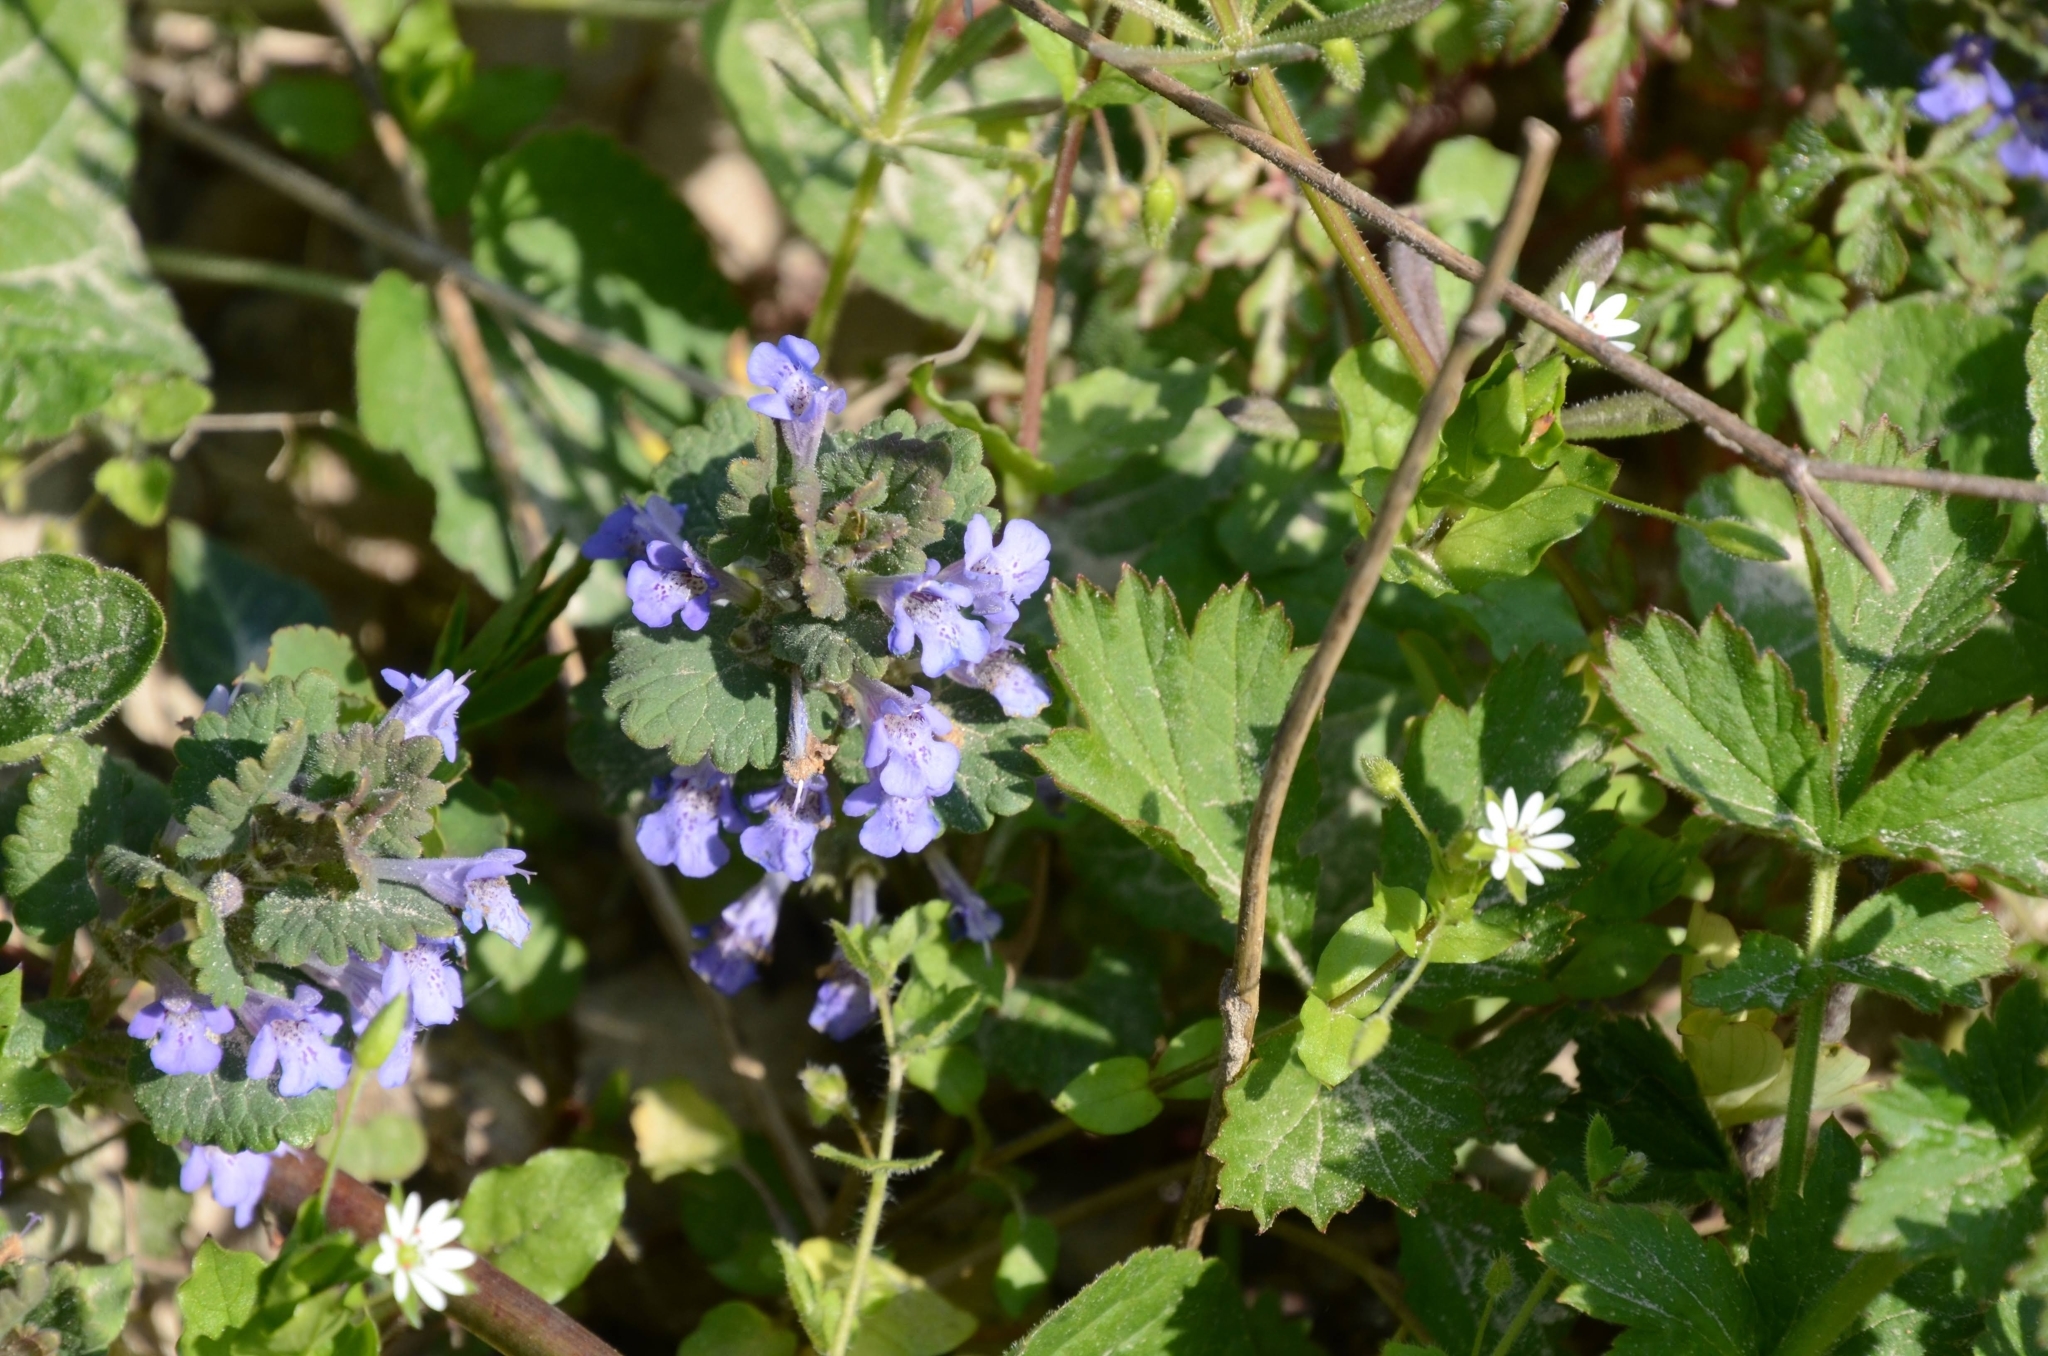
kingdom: Plantae
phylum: Tracheophyta
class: Magnoliopsida
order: Lamiales
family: Lamiaceae
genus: Glechoma
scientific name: Glechoma hederacea
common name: Ground ivy
